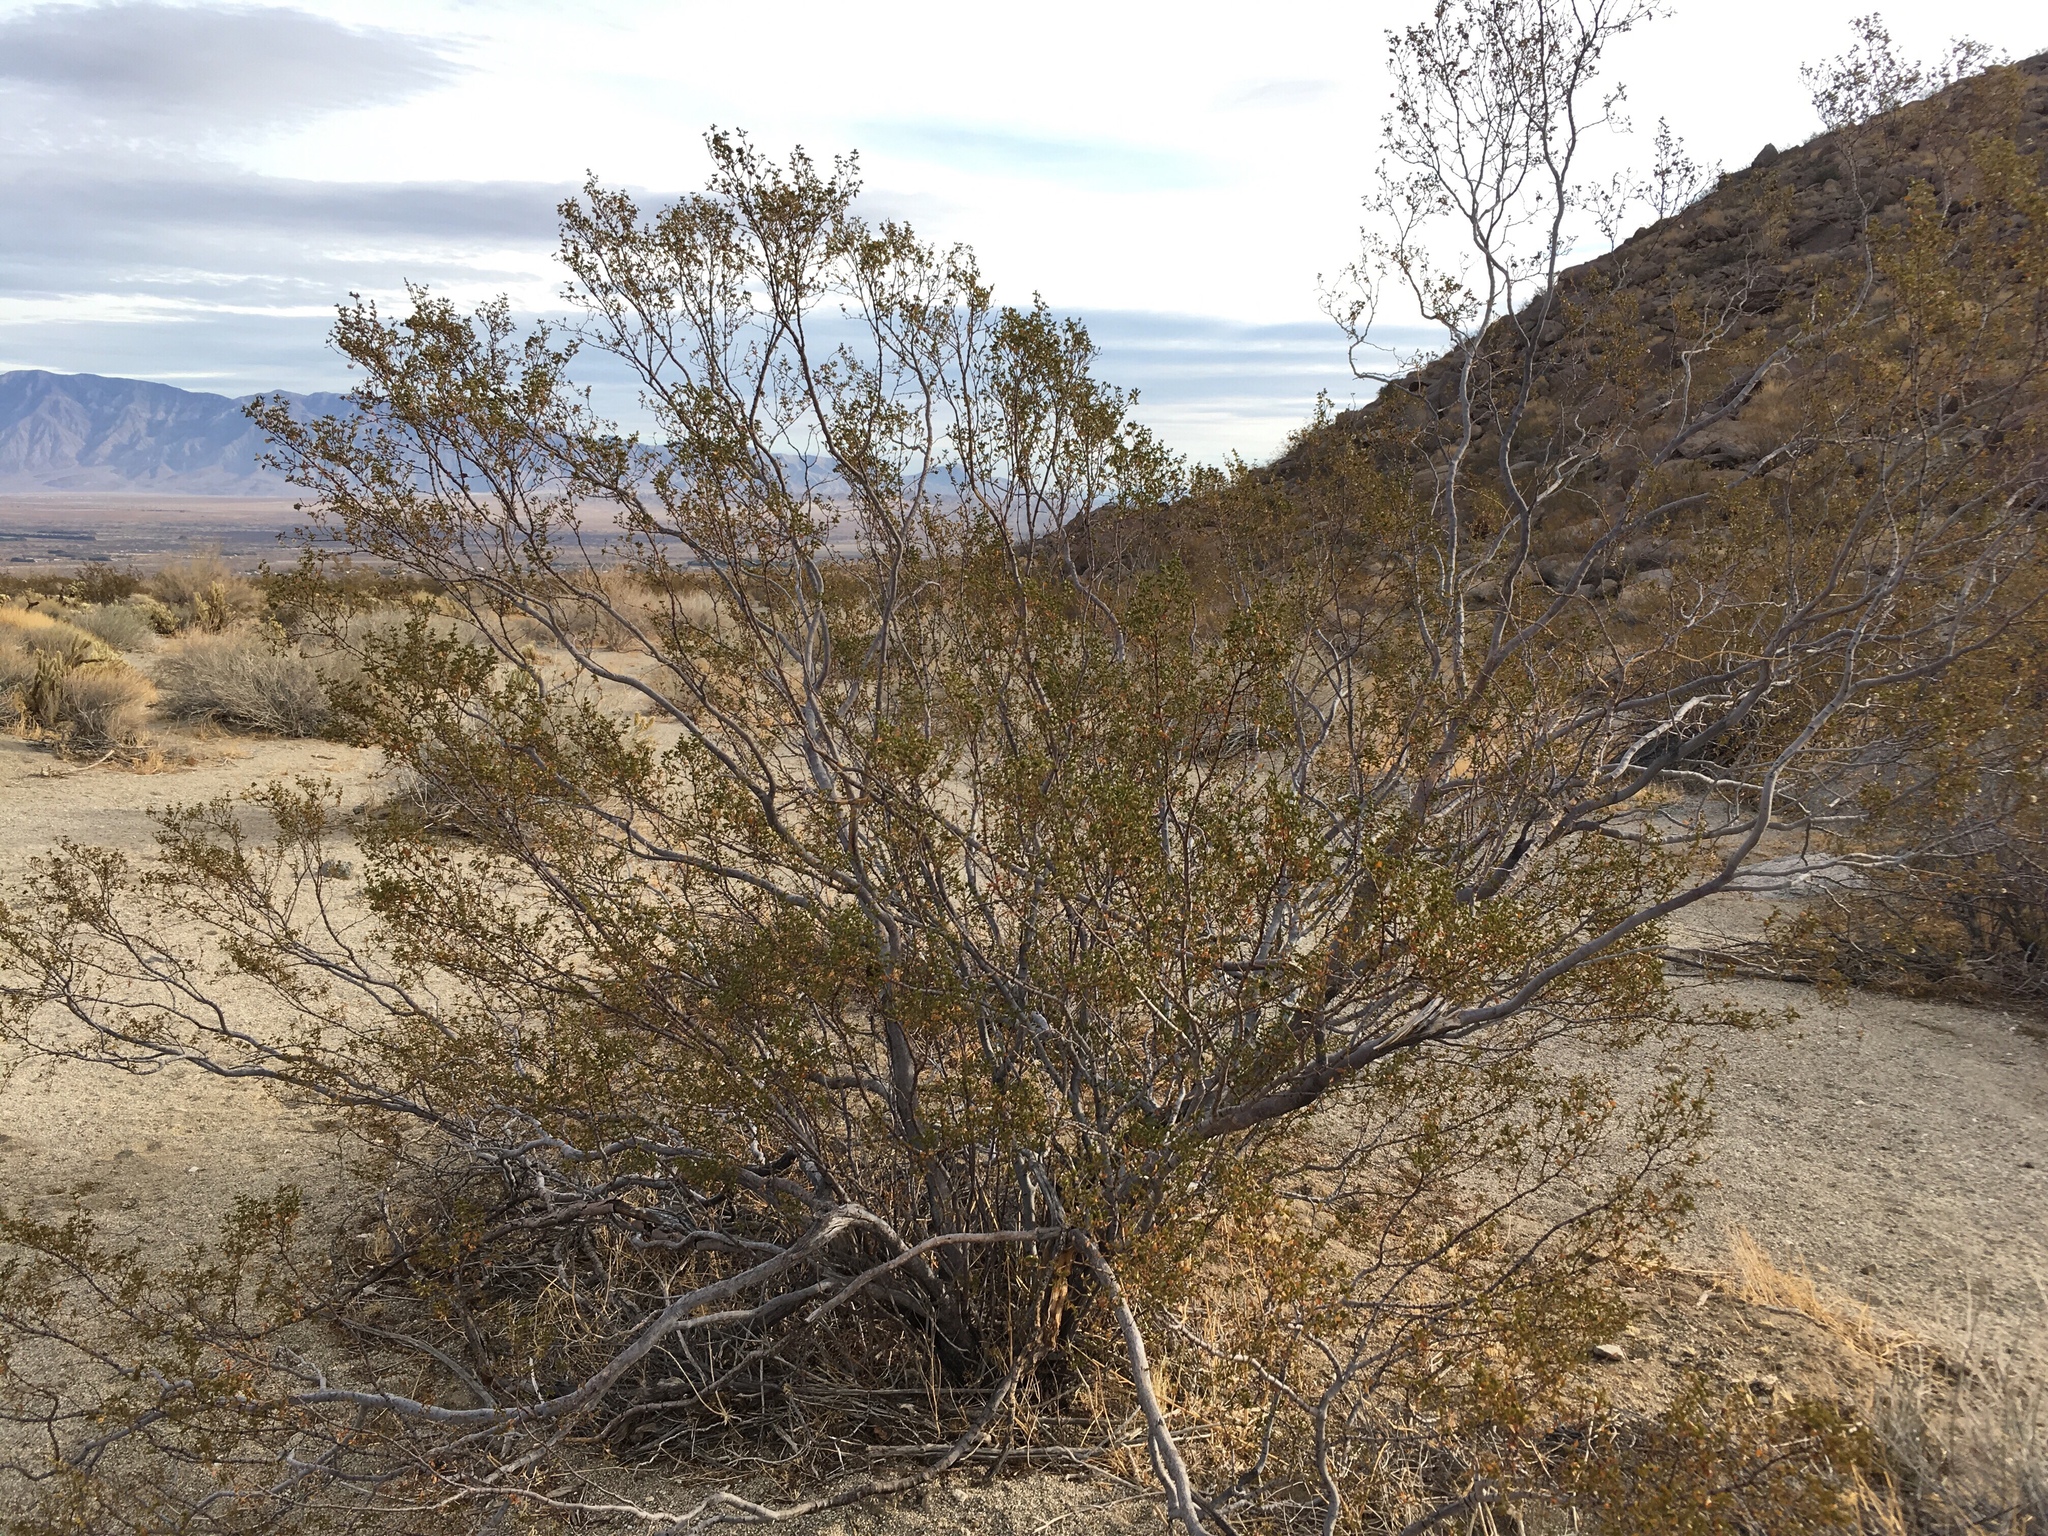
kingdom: Animalia
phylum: Arthropoda
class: Insecta
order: Diptera
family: Cecidomyiidae
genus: Asphondylia
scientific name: Asphondylia auripila
